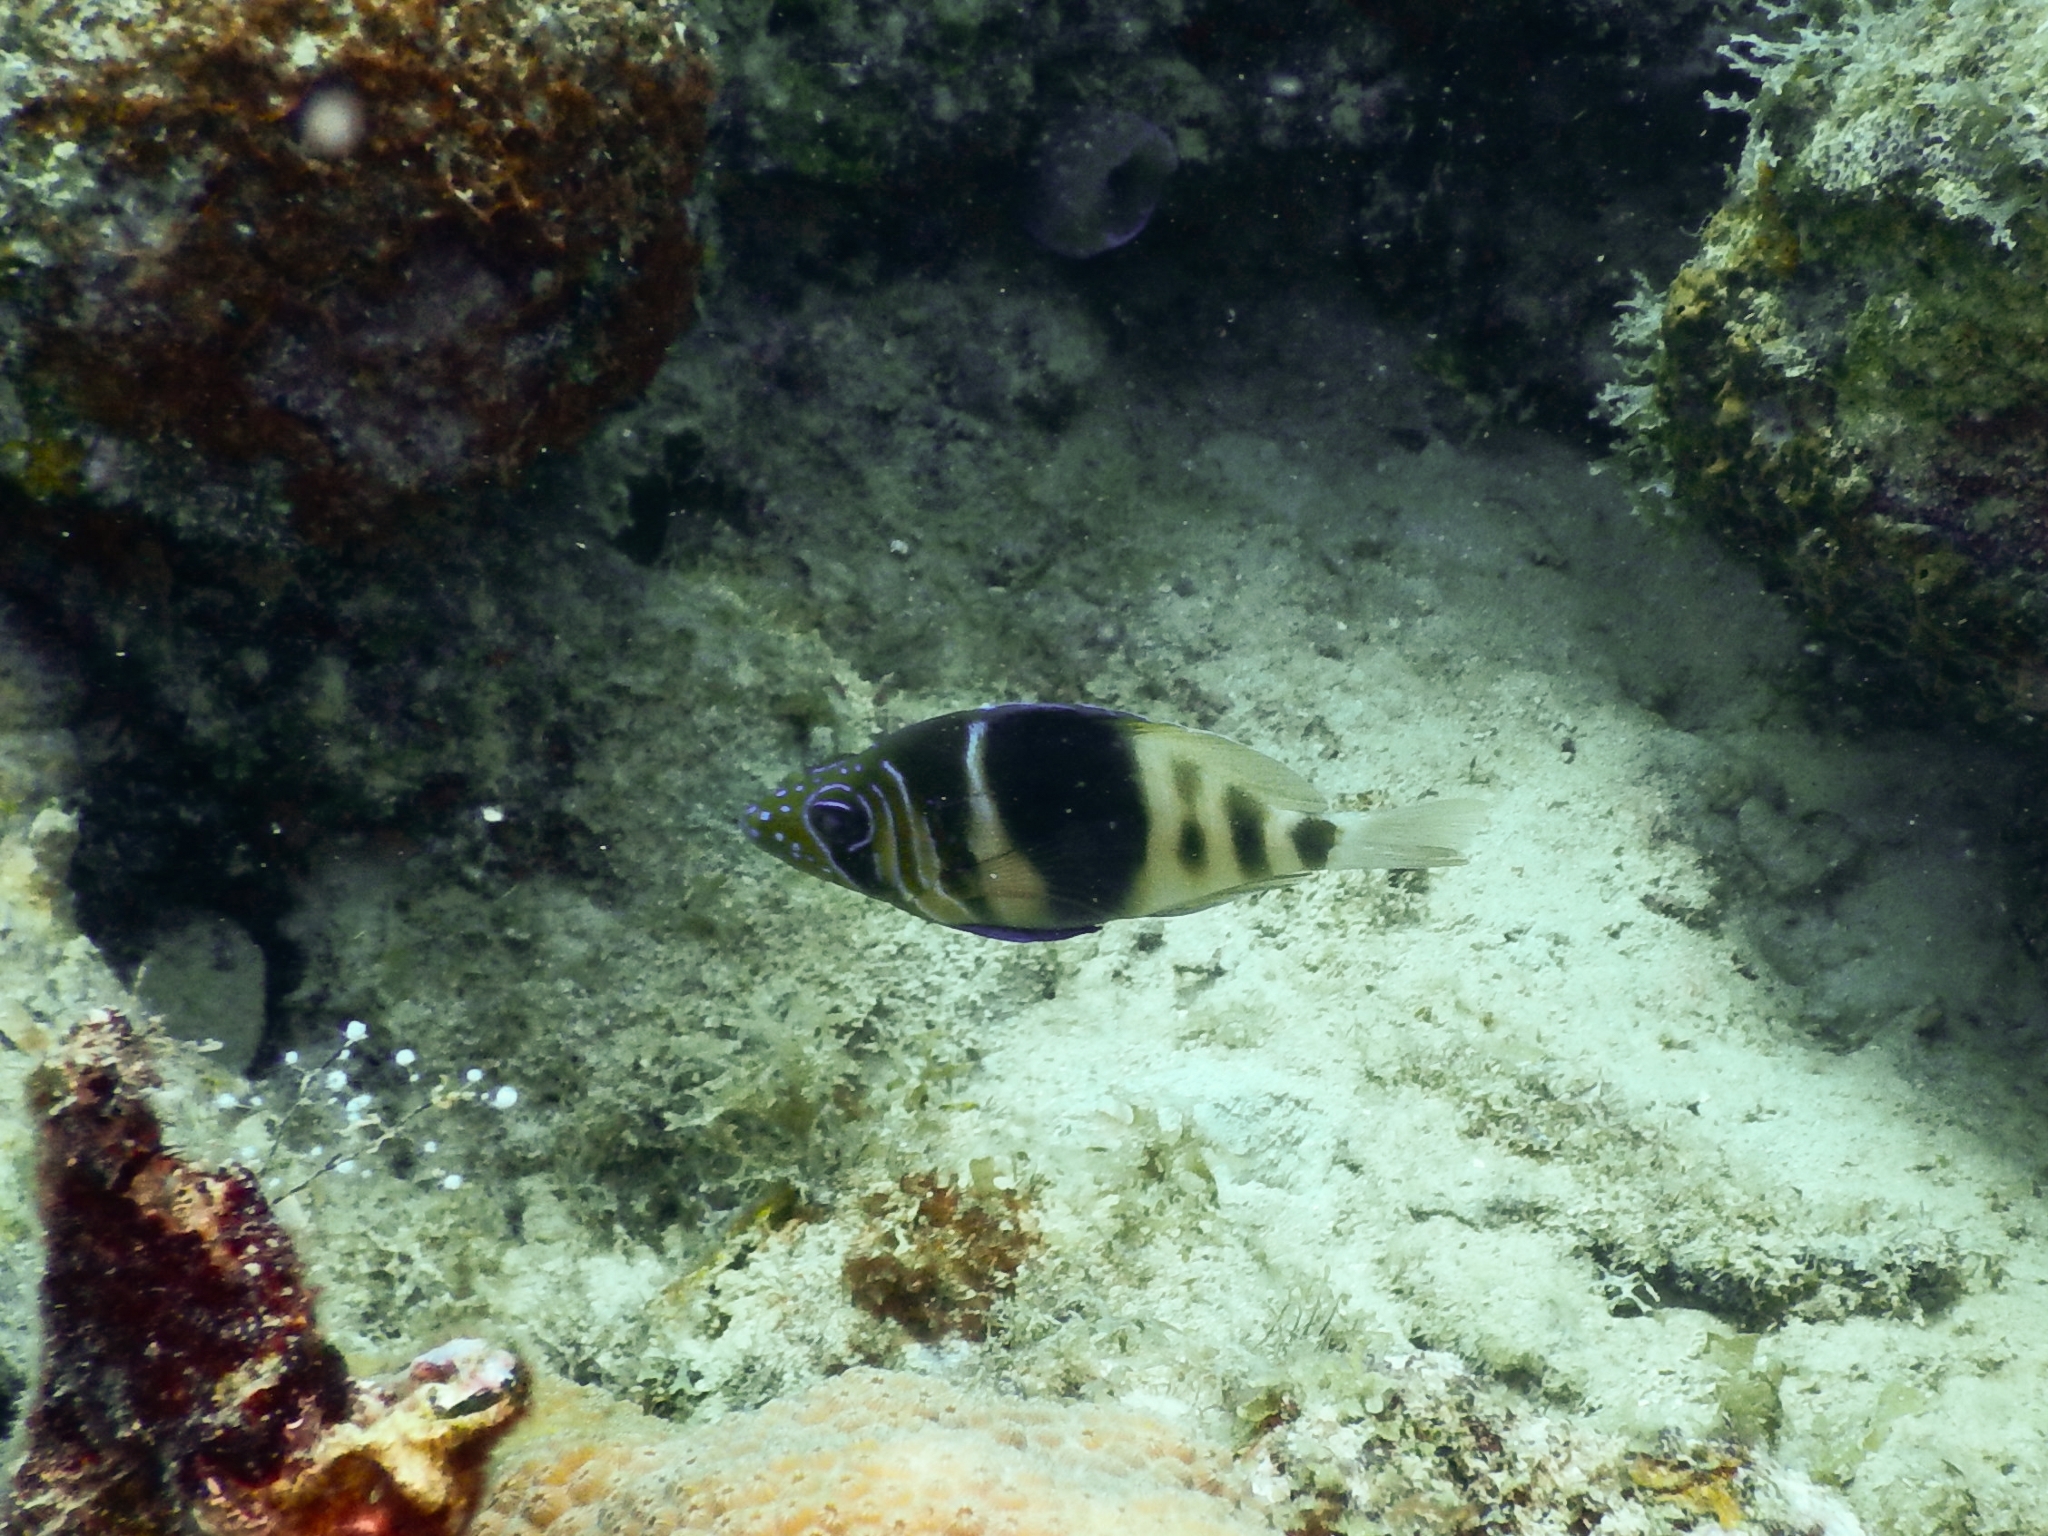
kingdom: Animalia
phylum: Chordata
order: Perciformes
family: Serranidae
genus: Hypoplectrus
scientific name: Hypoplectrus puella
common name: Barred hamlet
